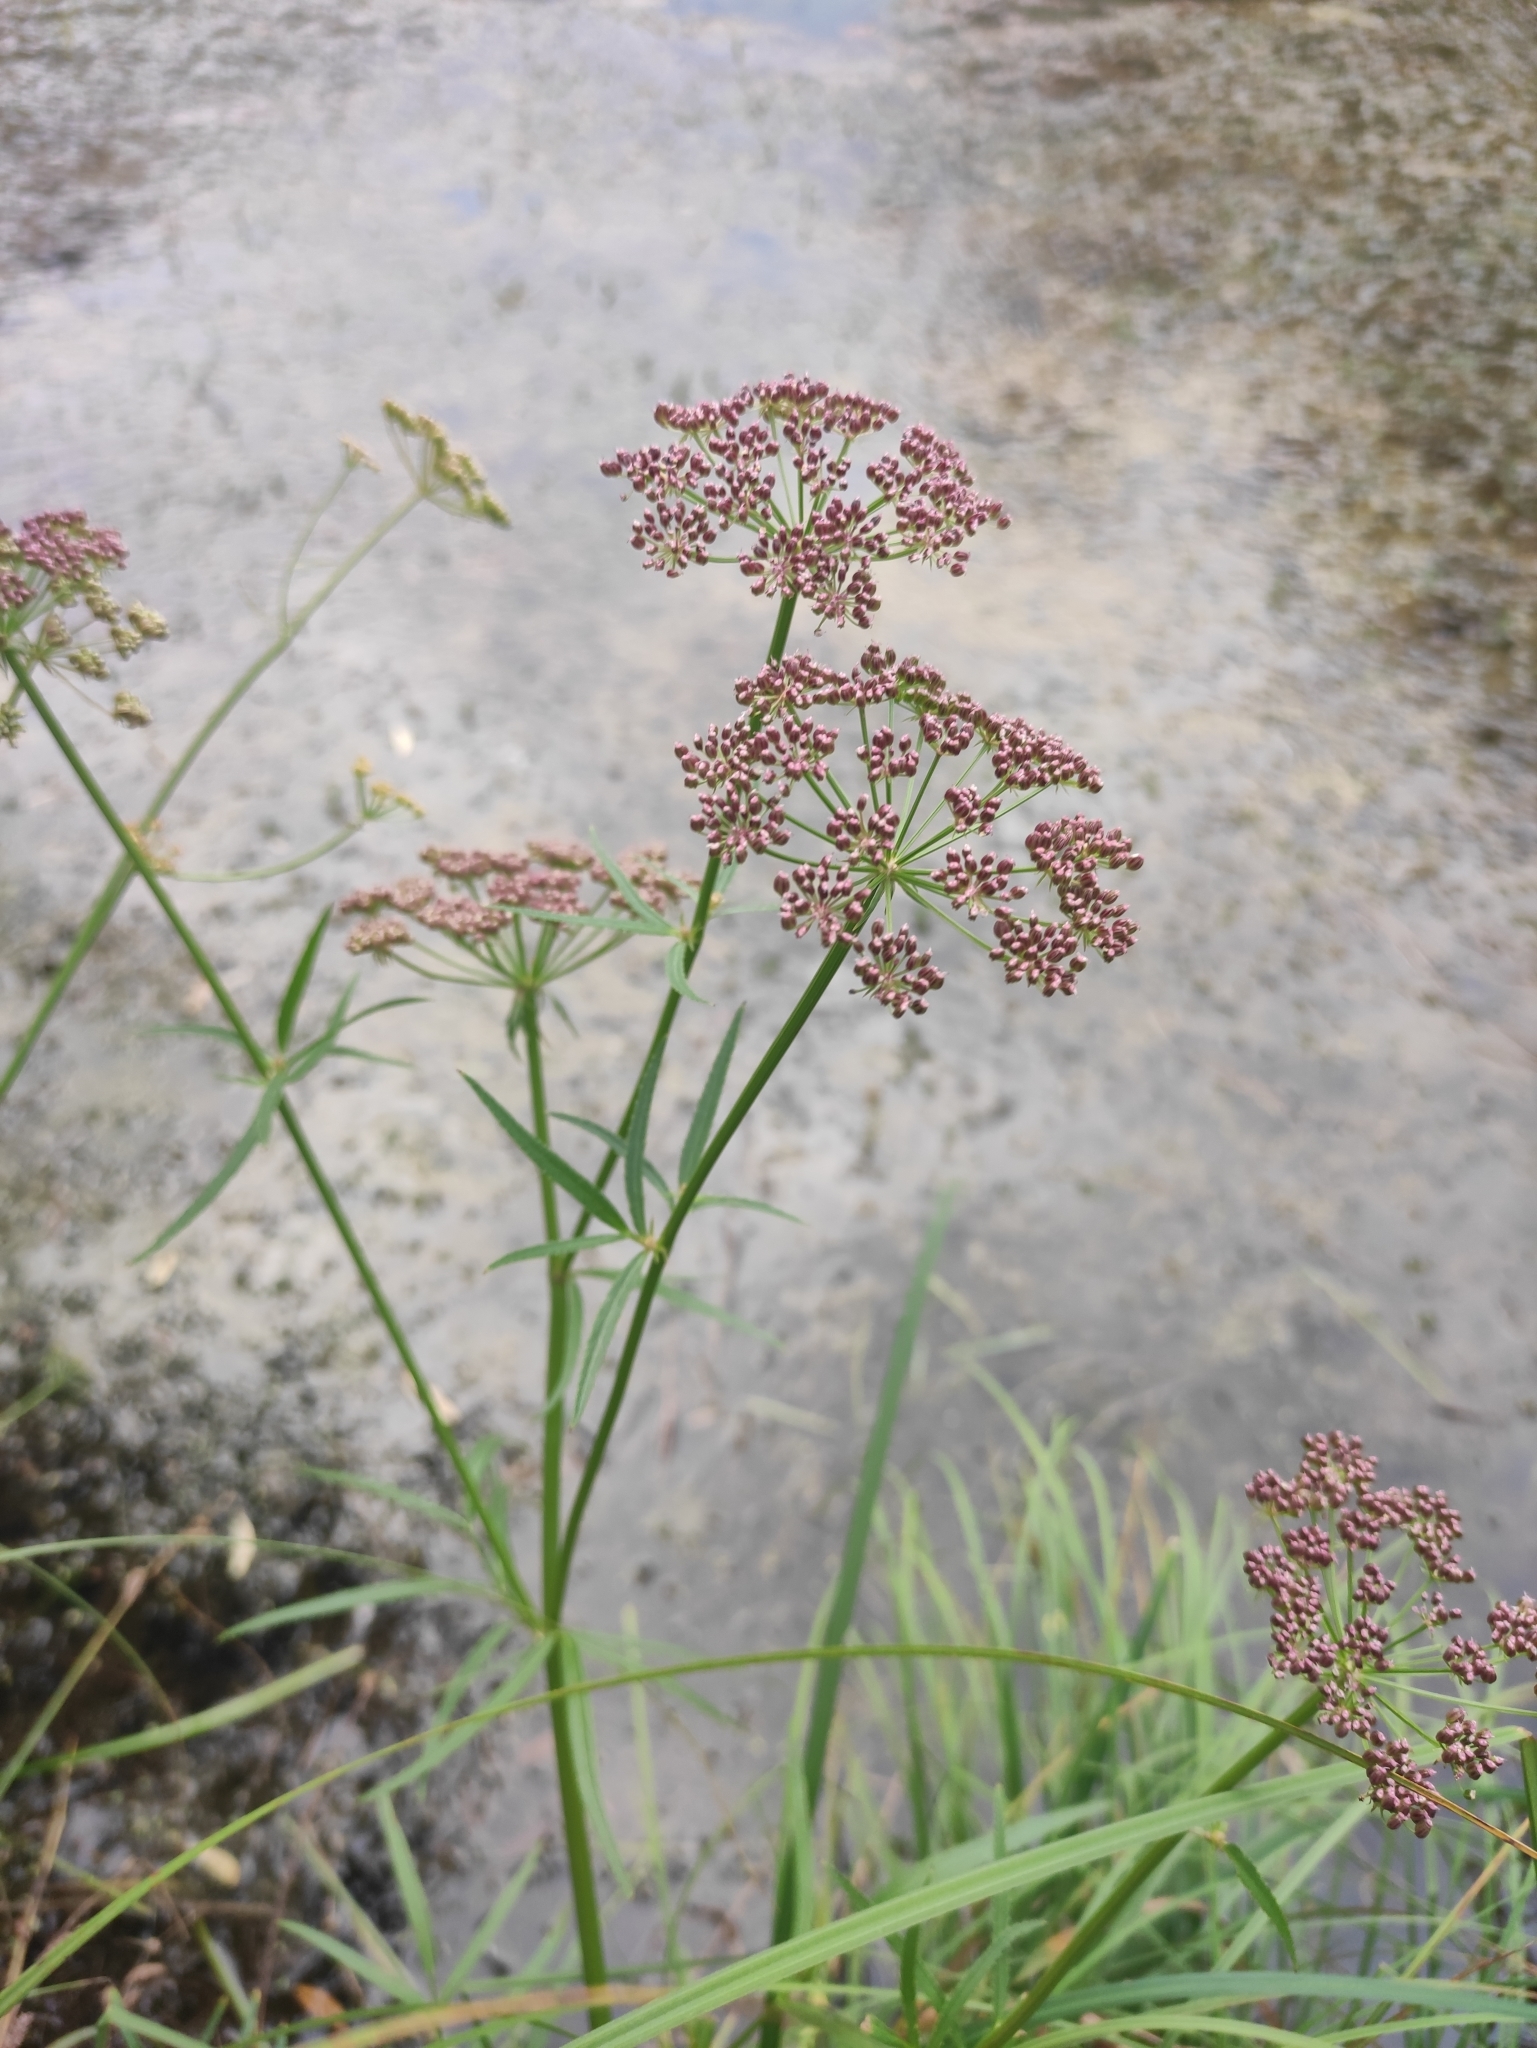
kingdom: Plantae
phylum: Tracheophyta
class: Magnoliopsida
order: Apiales
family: Apiaceae
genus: Sium
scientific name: Sium suave
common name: Hemlock water-parsnip
